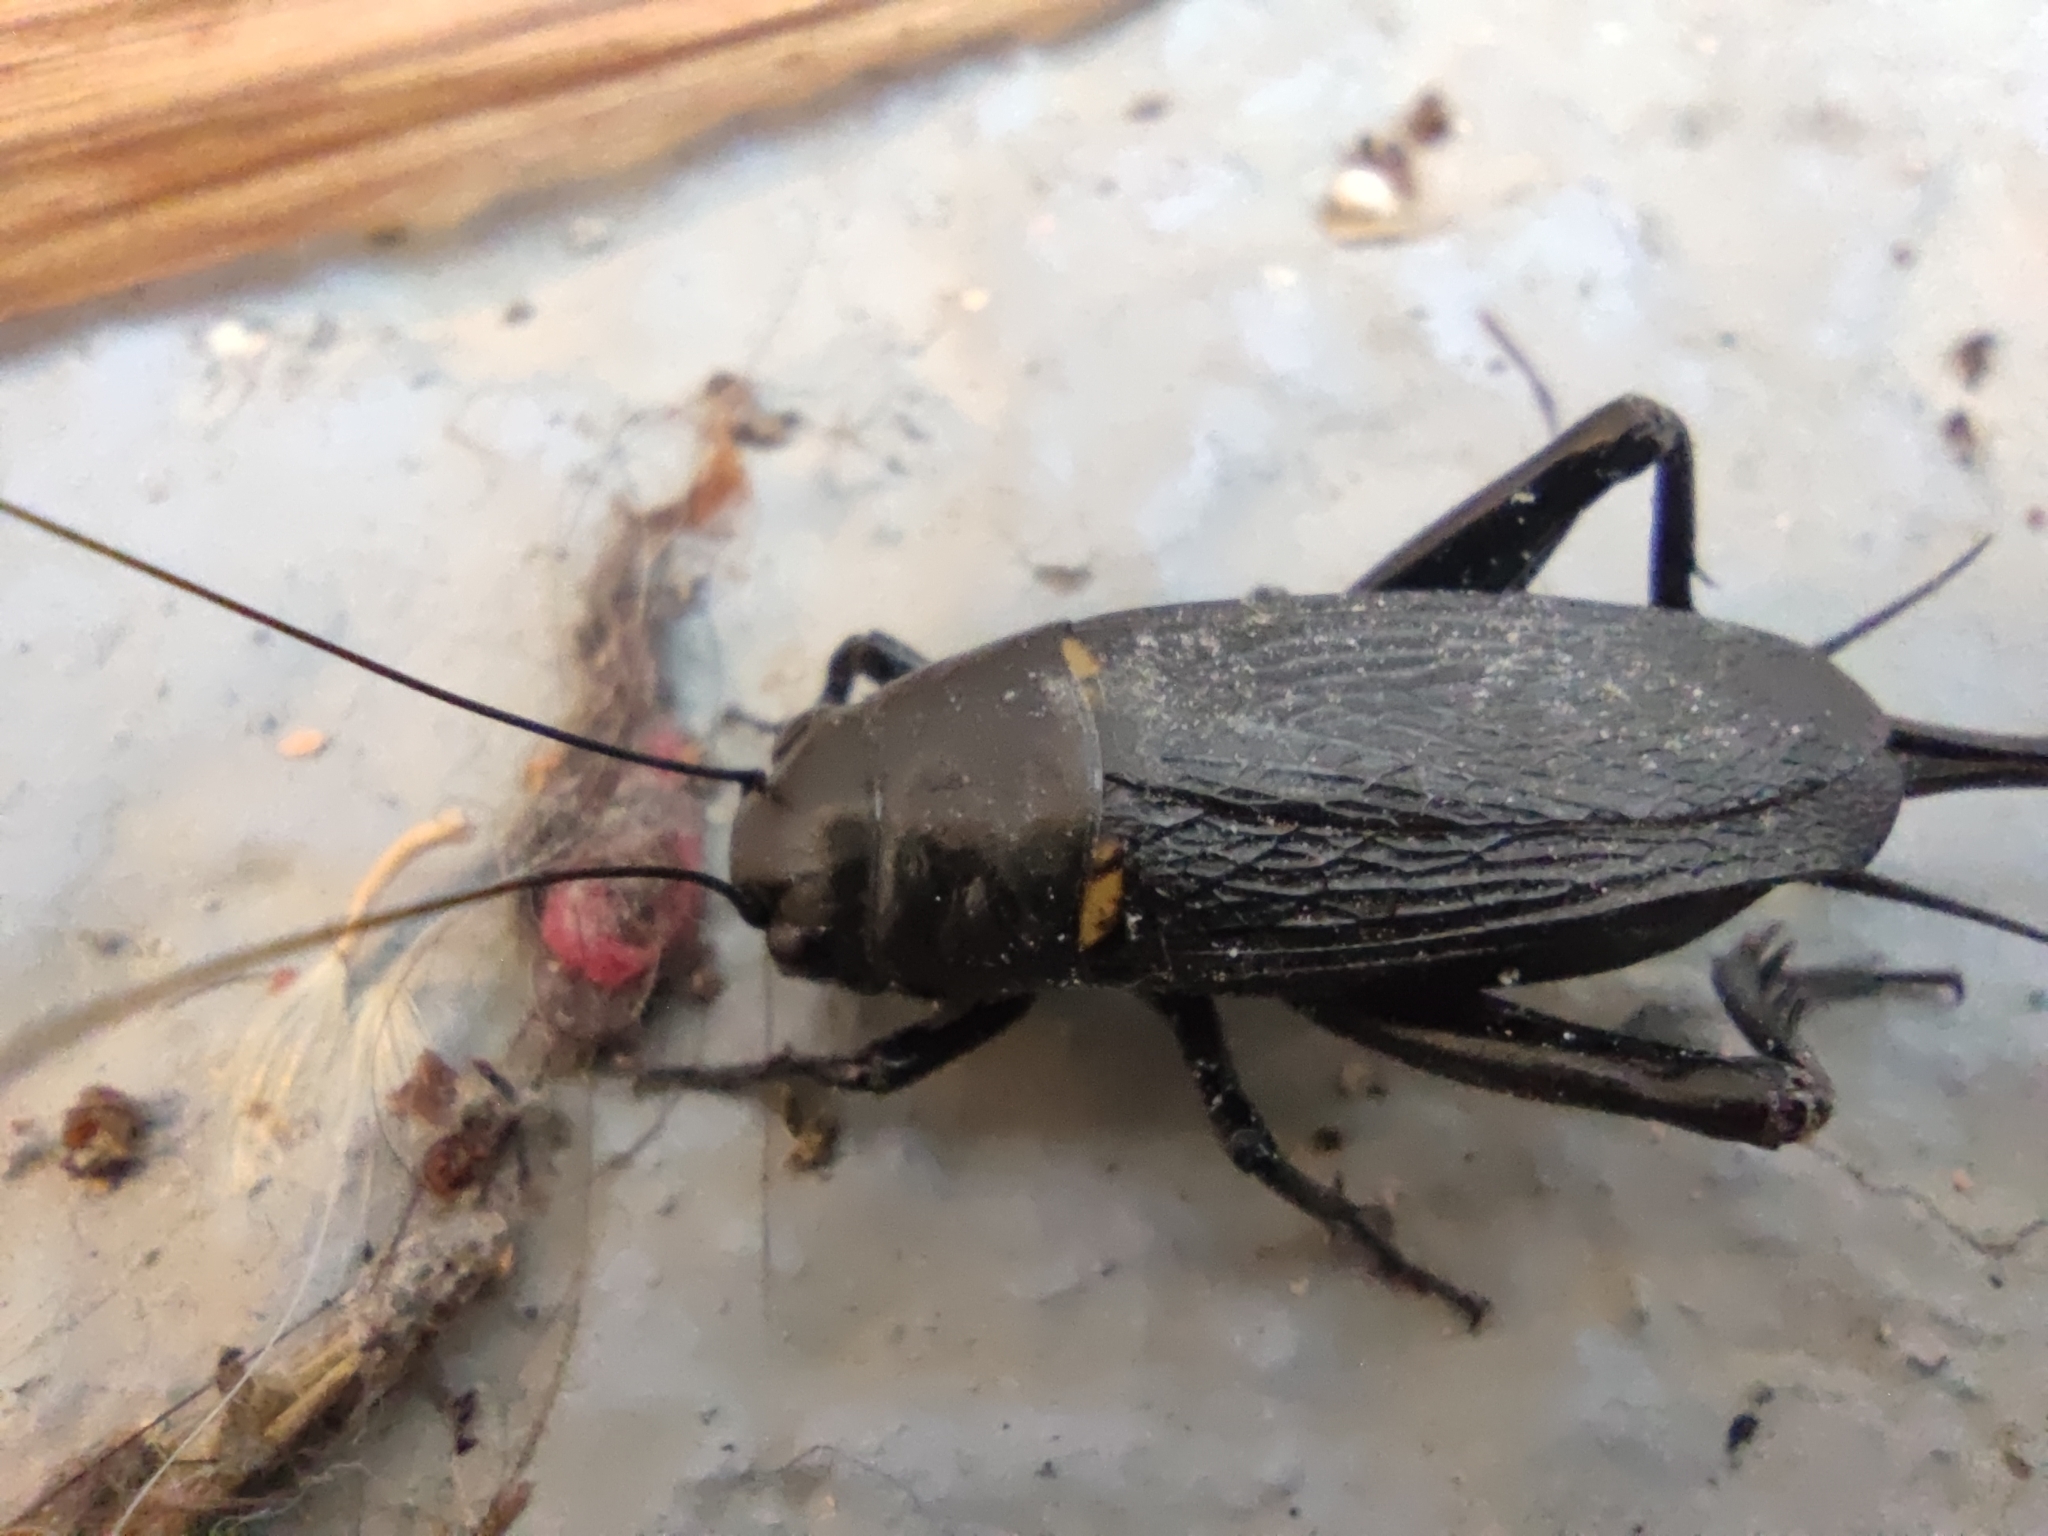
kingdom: Animalia
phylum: Arthropoda
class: Insecta
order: Orthoptera
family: Gryllidae
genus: Gryllus
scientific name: Gryllus bimaculatus
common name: Two-spotted cricket
